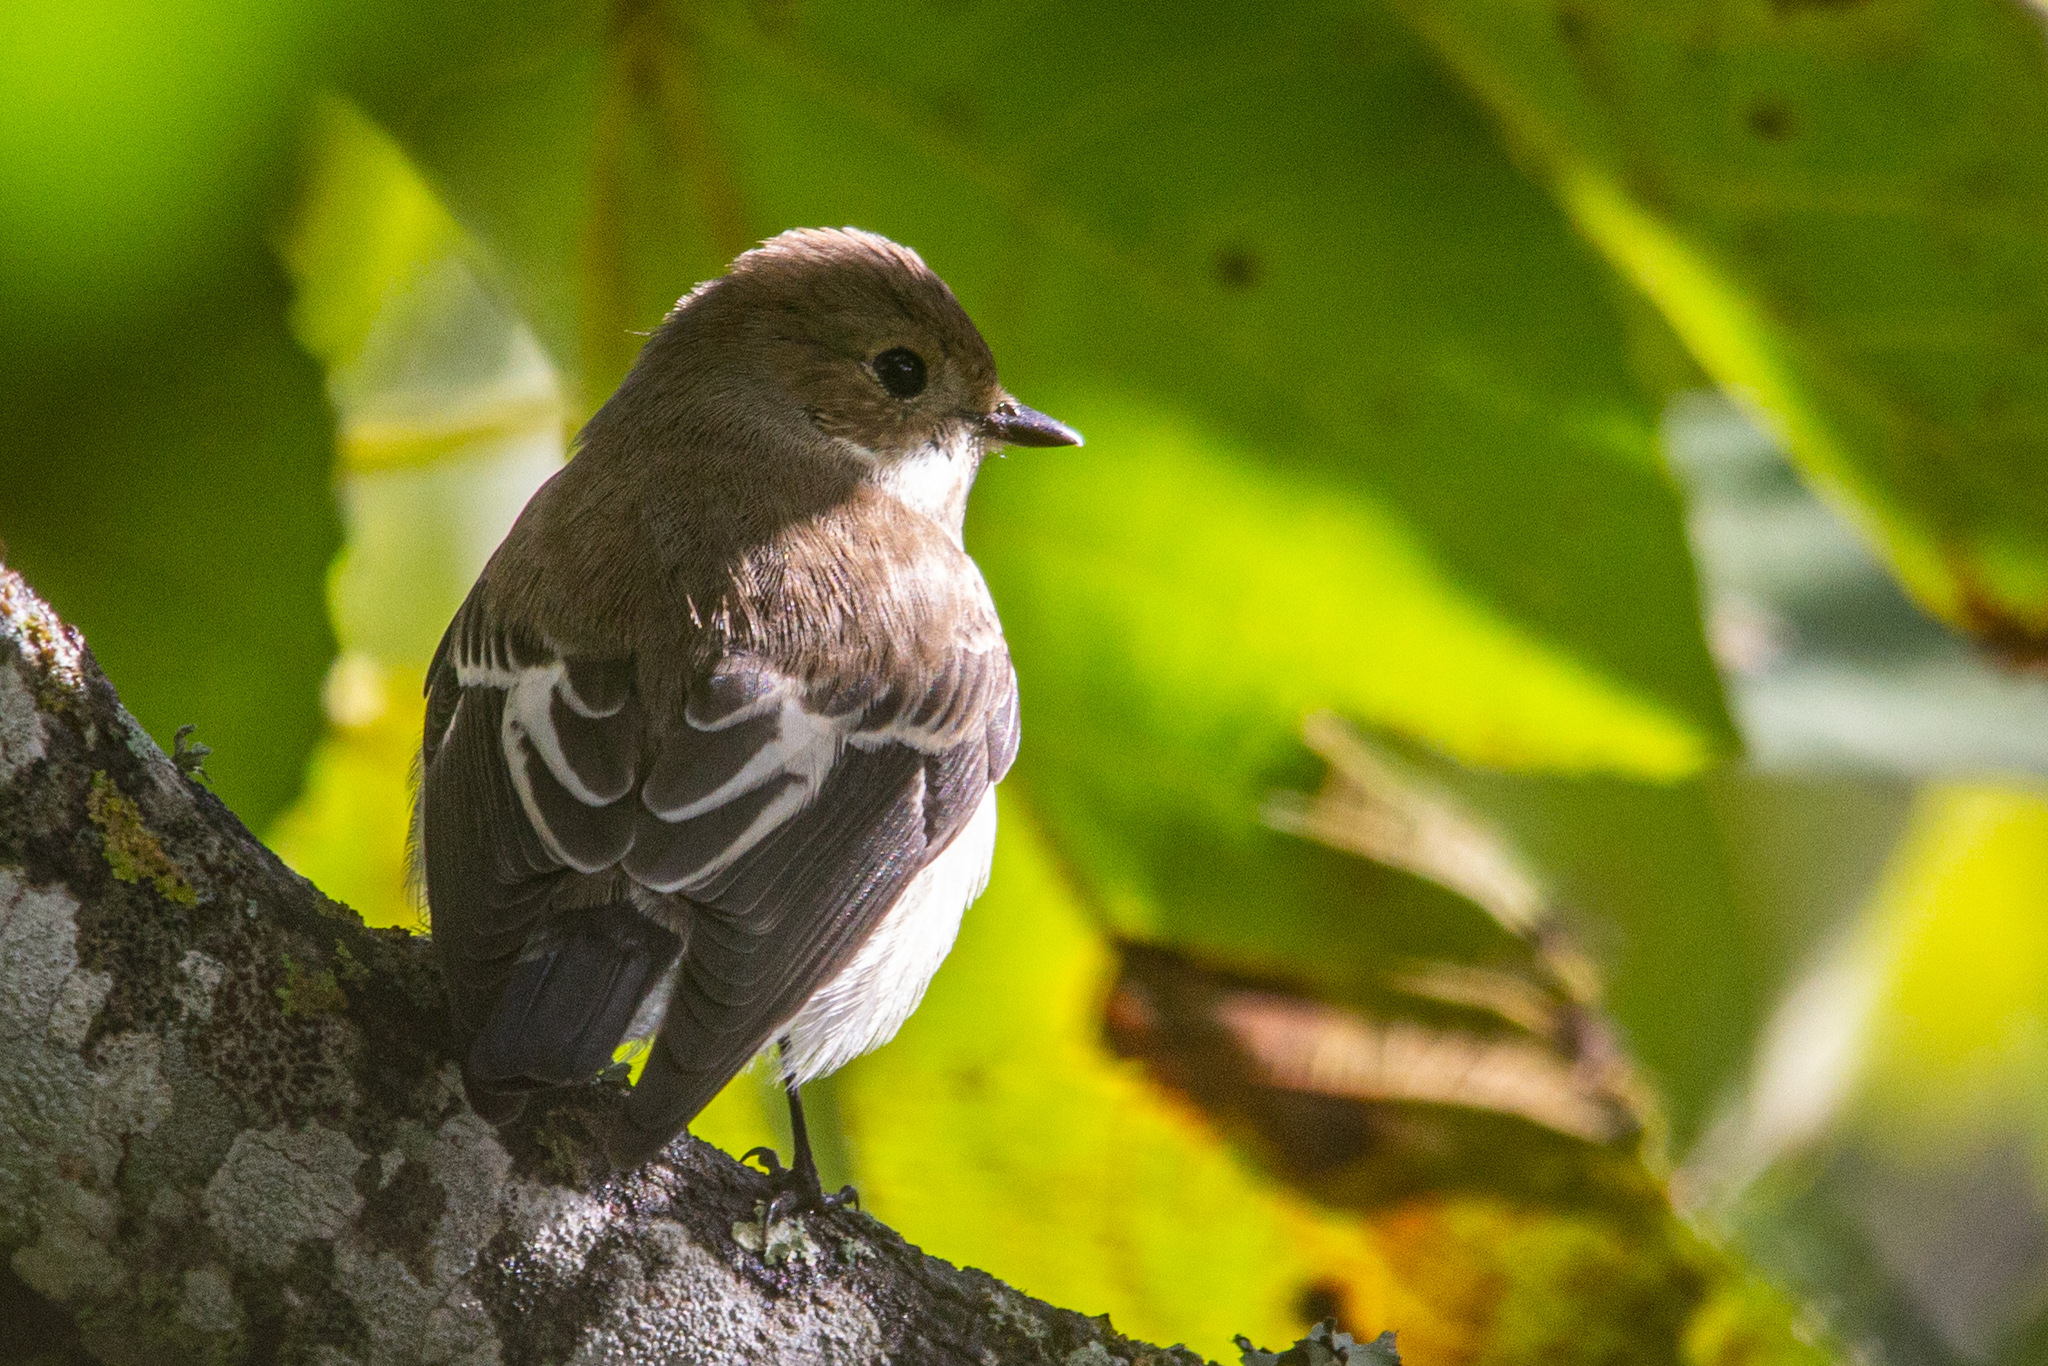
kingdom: Animalia
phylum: Chordata
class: Aves
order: Passeriformes
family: Muscicapidae
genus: Ficedula
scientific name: Ficedula hypoleuca
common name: European pied flycatcher
